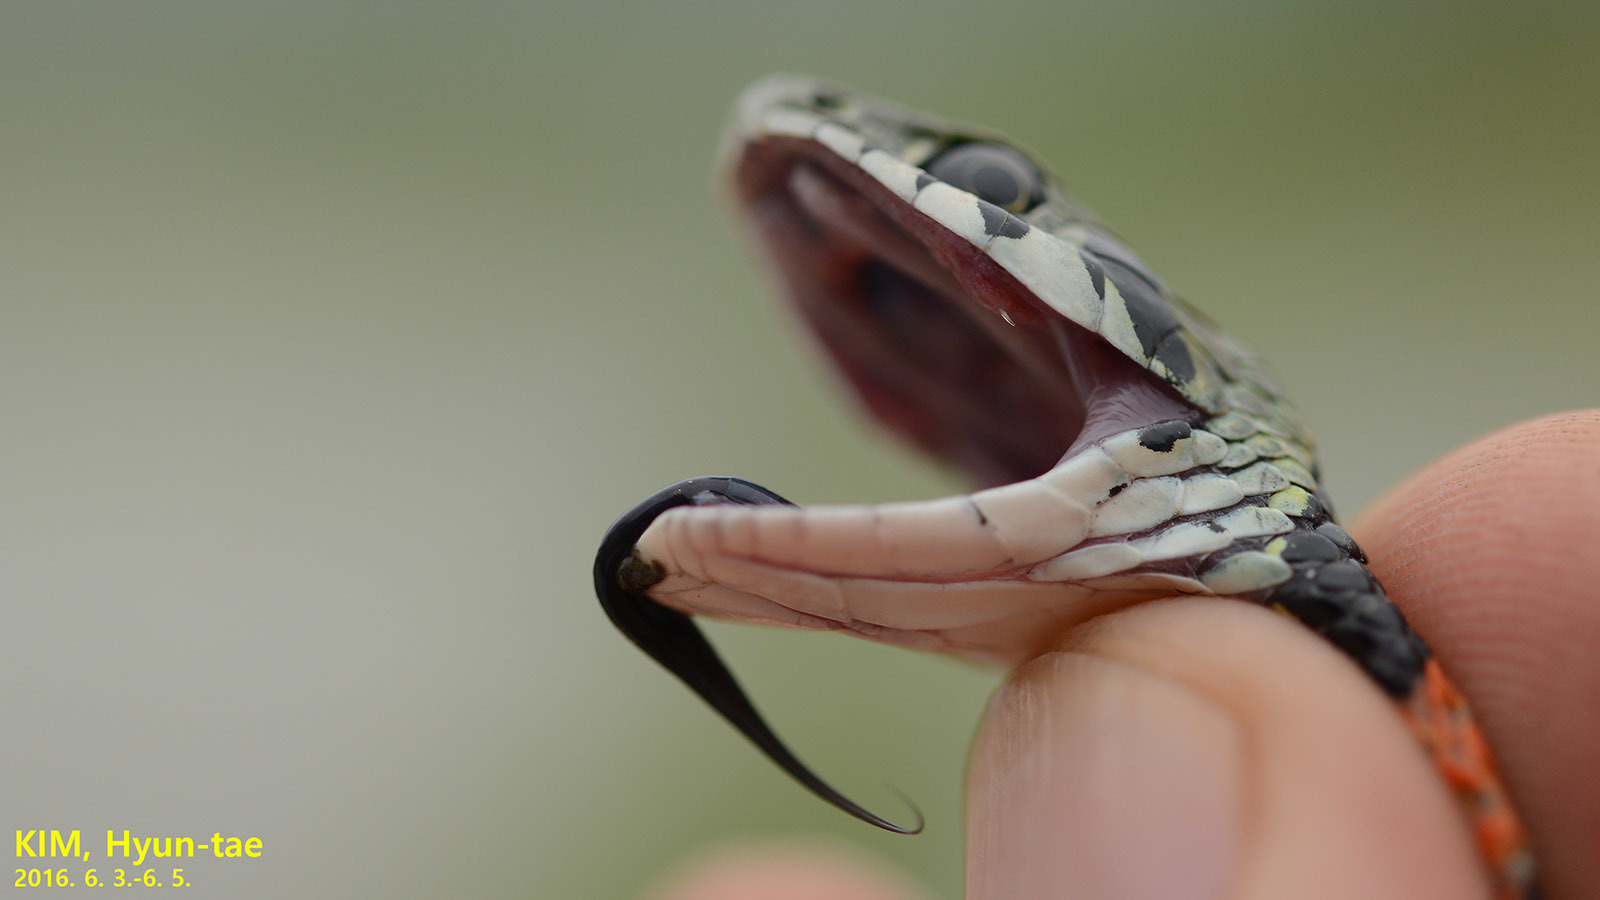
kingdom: Animalia
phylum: Chordata
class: Squamata
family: Colubridae
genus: Rhabdophis
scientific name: Rhabdophis tigrinus
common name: Tiger keelback
